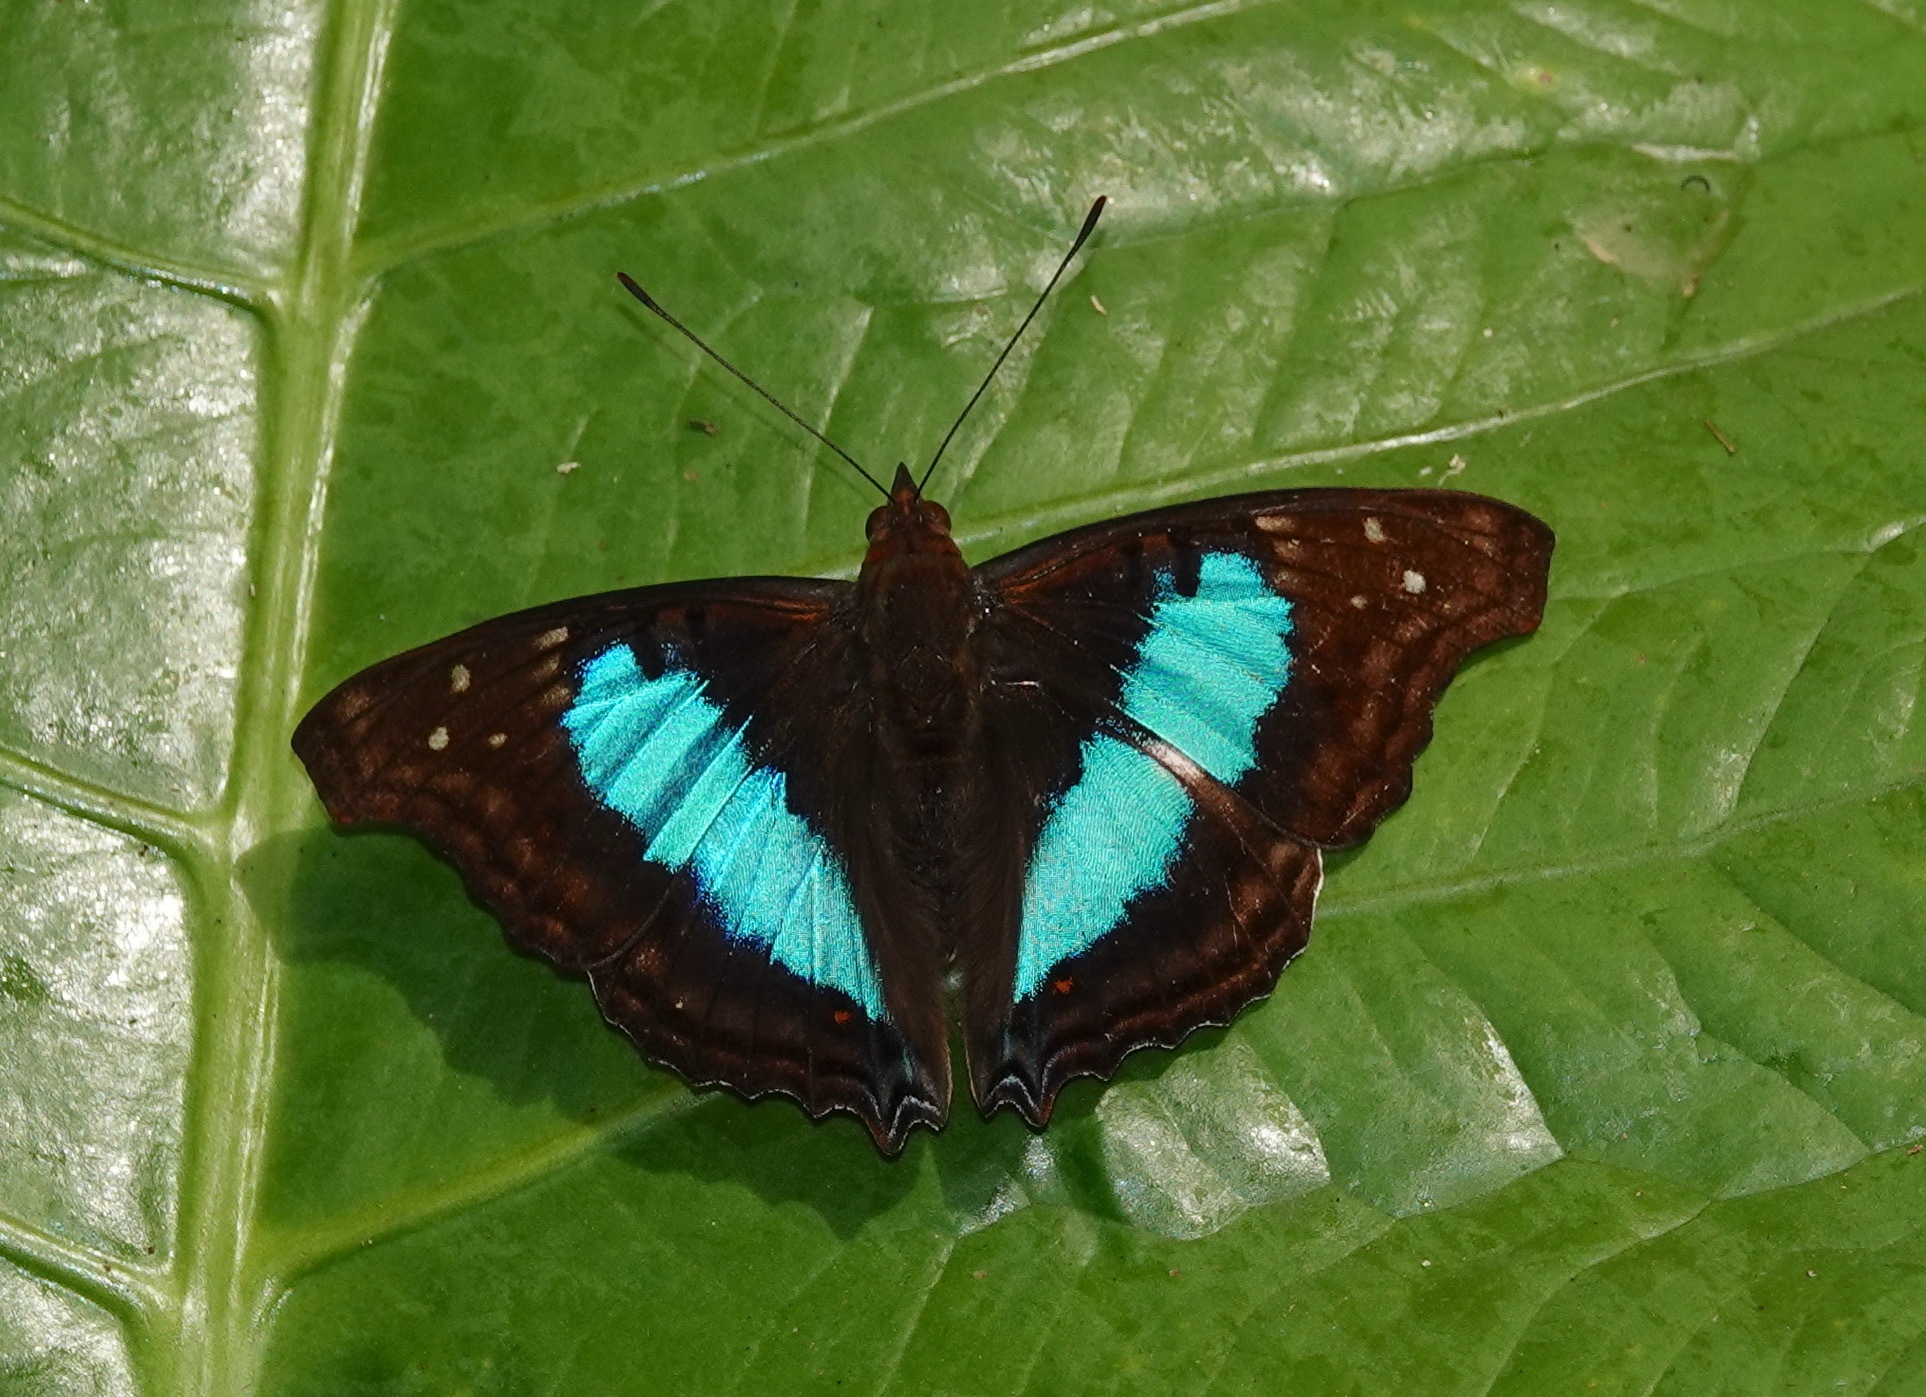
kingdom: Animalia
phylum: Arthropoda
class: Insecta
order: Lepidoptera
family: Nymphalidae
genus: Doxocopa
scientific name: Doxocopa laurentia
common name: Turquoise emperor
